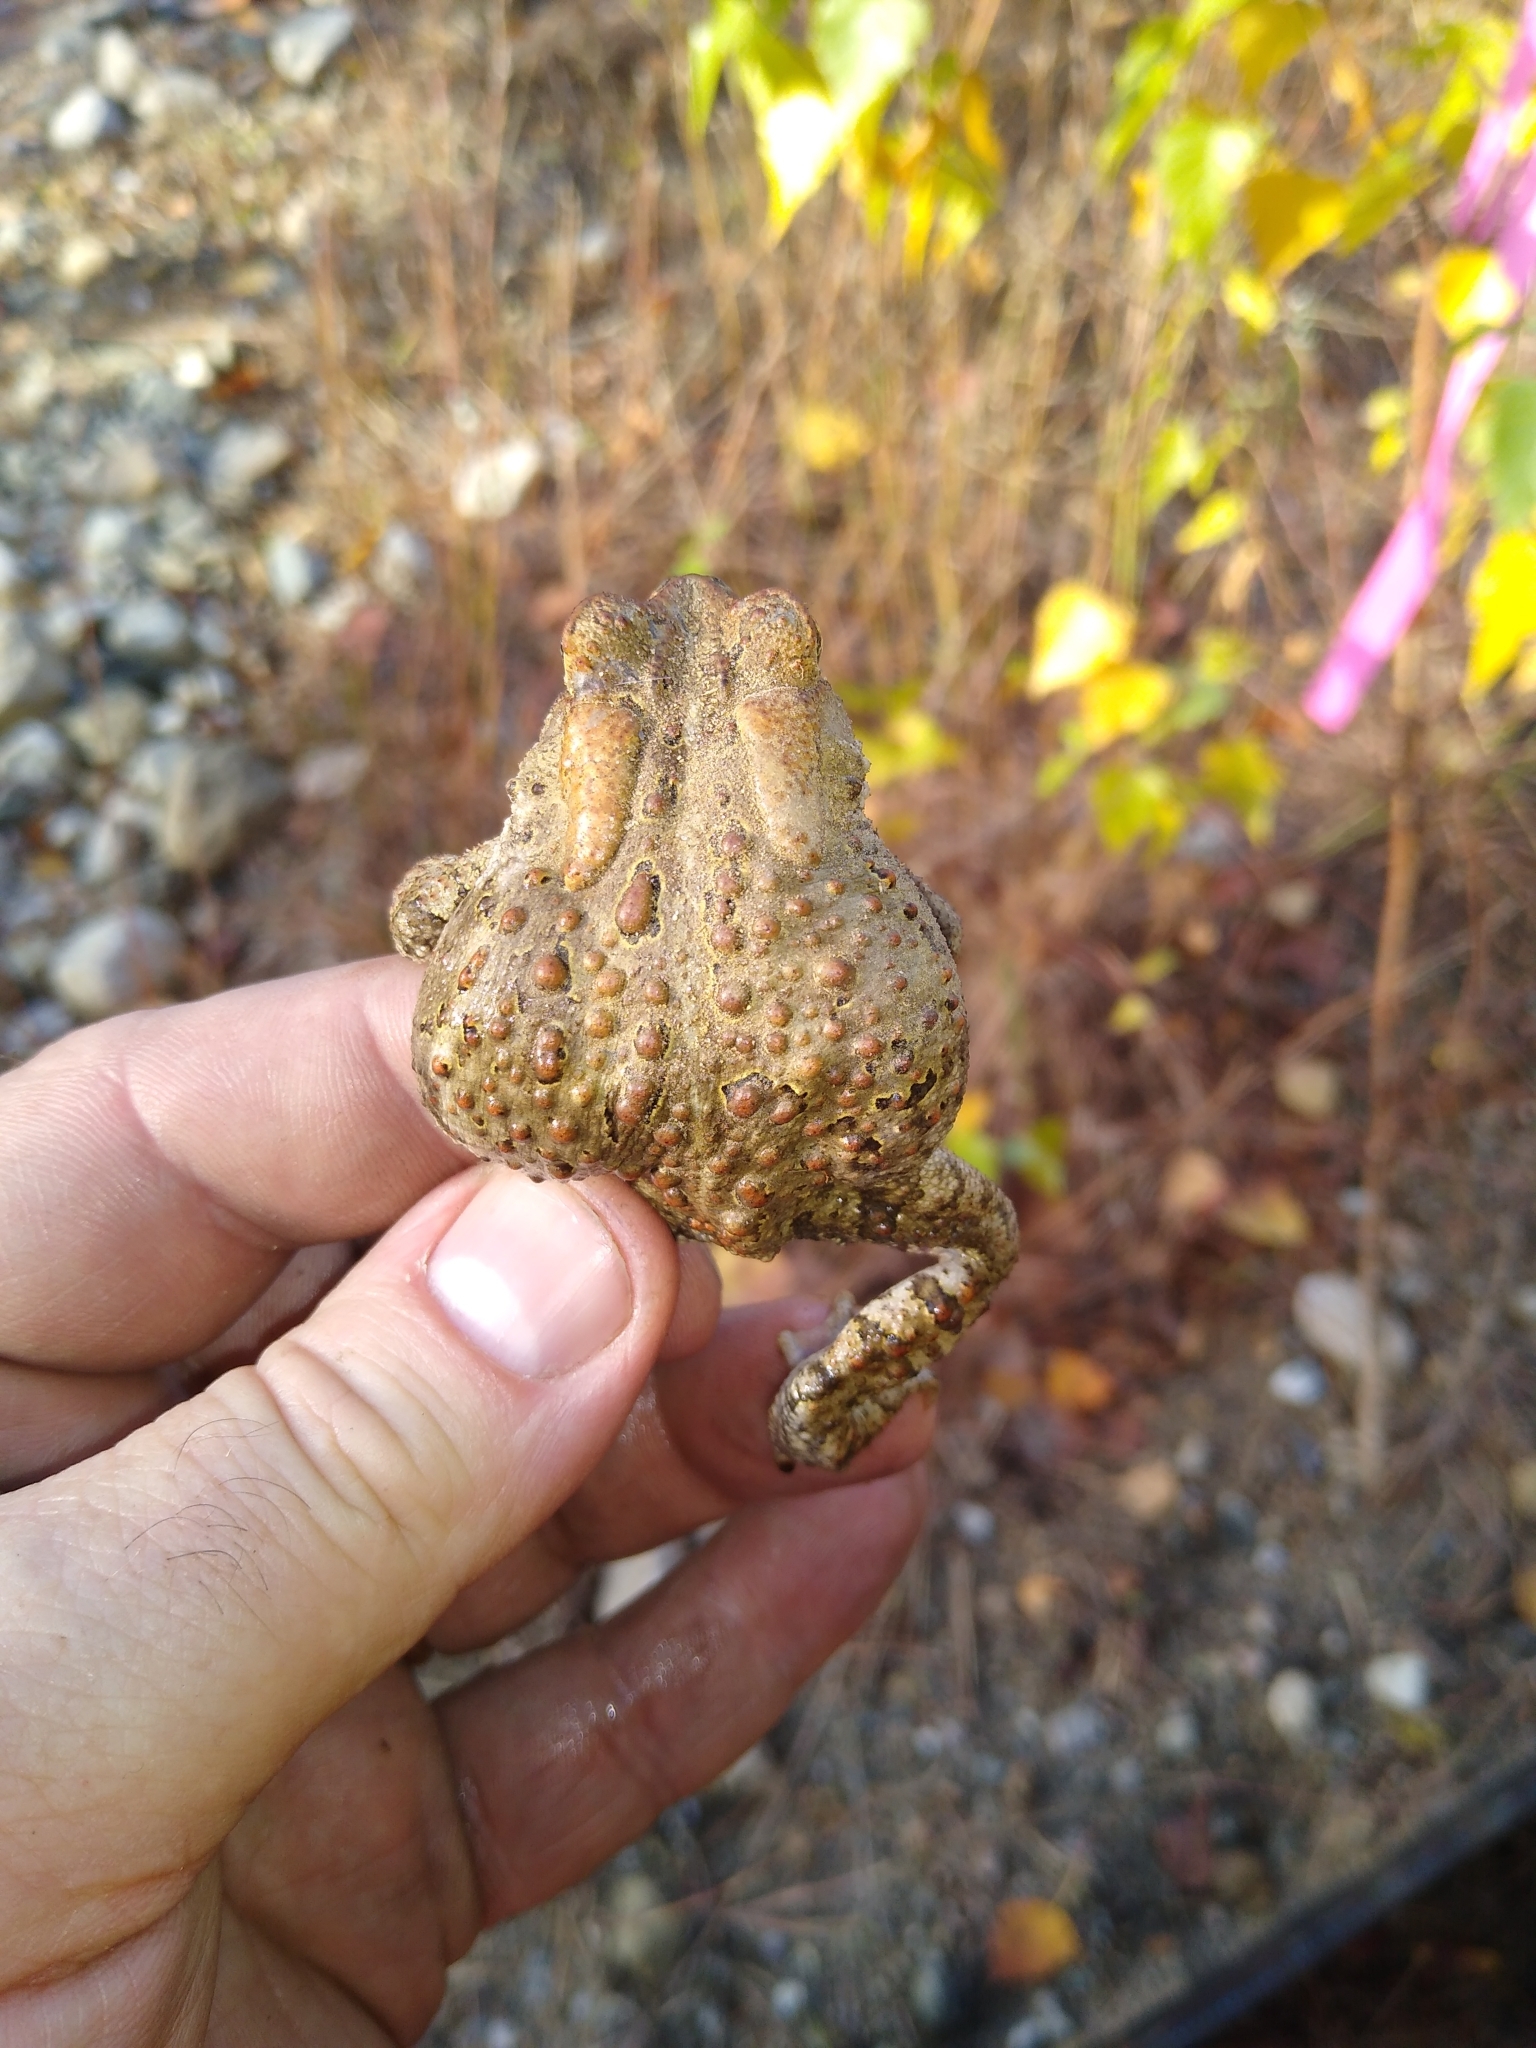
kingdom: Animalia
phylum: Chordata
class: Amphibia
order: Anura
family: Bufonidae
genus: Anaxyrus
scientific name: Anaxyrus americanus
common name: American toad
